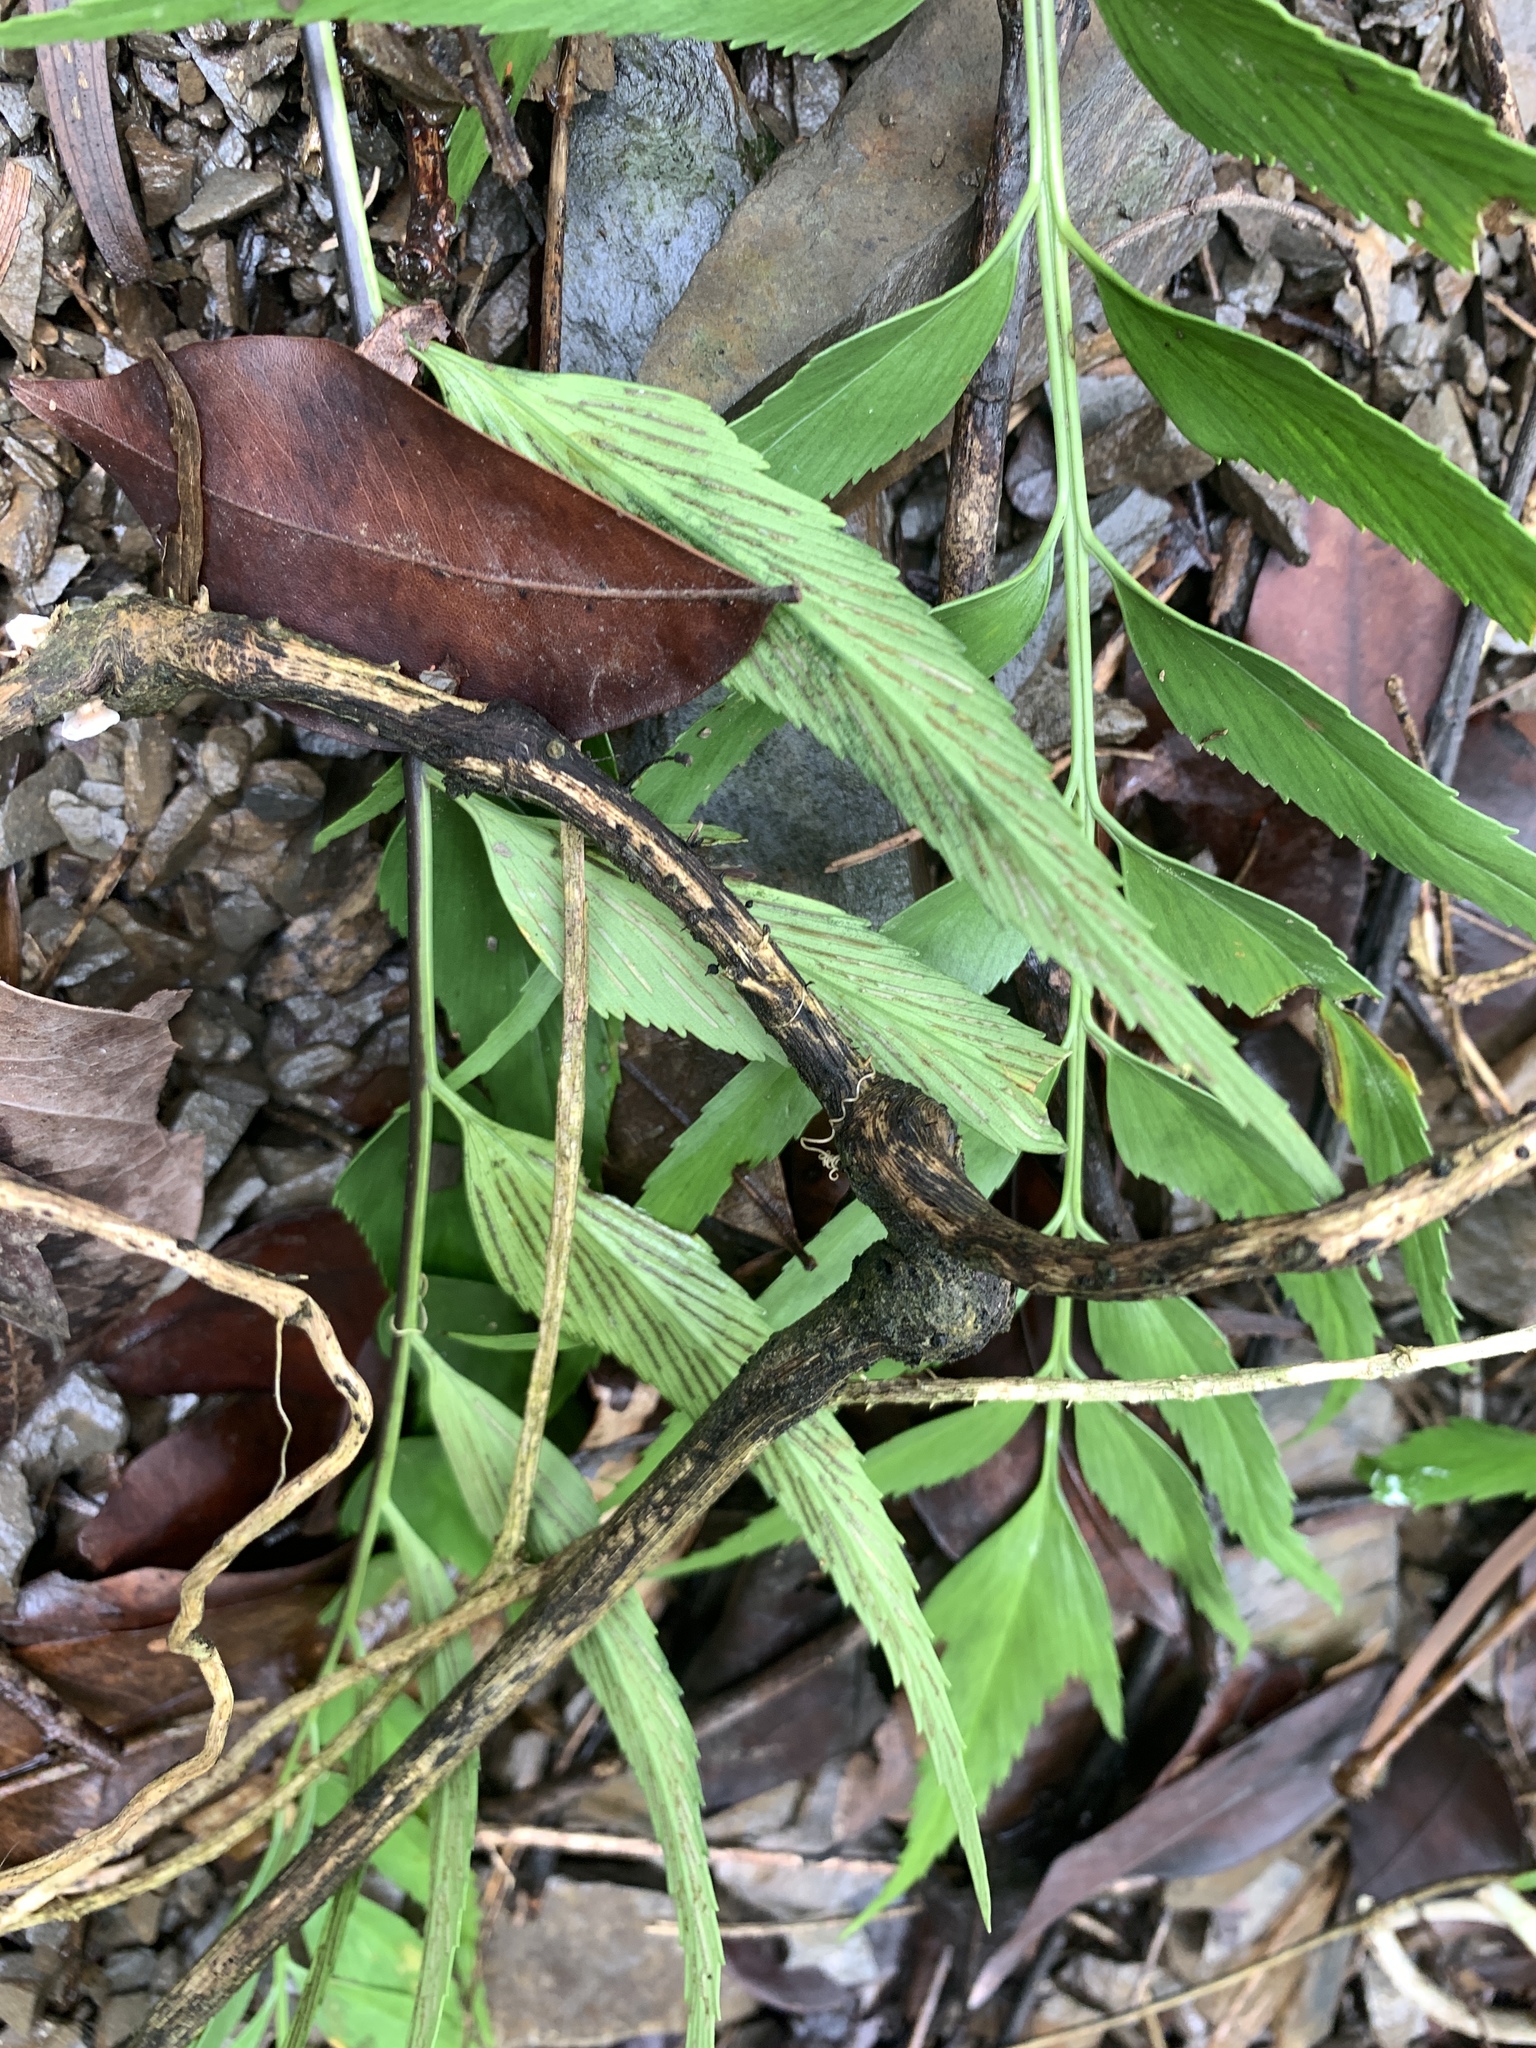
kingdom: Plantae
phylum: Tracheophyta
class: Polypodiopsida
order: Polypodiales
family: Aspleniaceae
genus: Asplenium
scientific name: Asplenium falcatum
